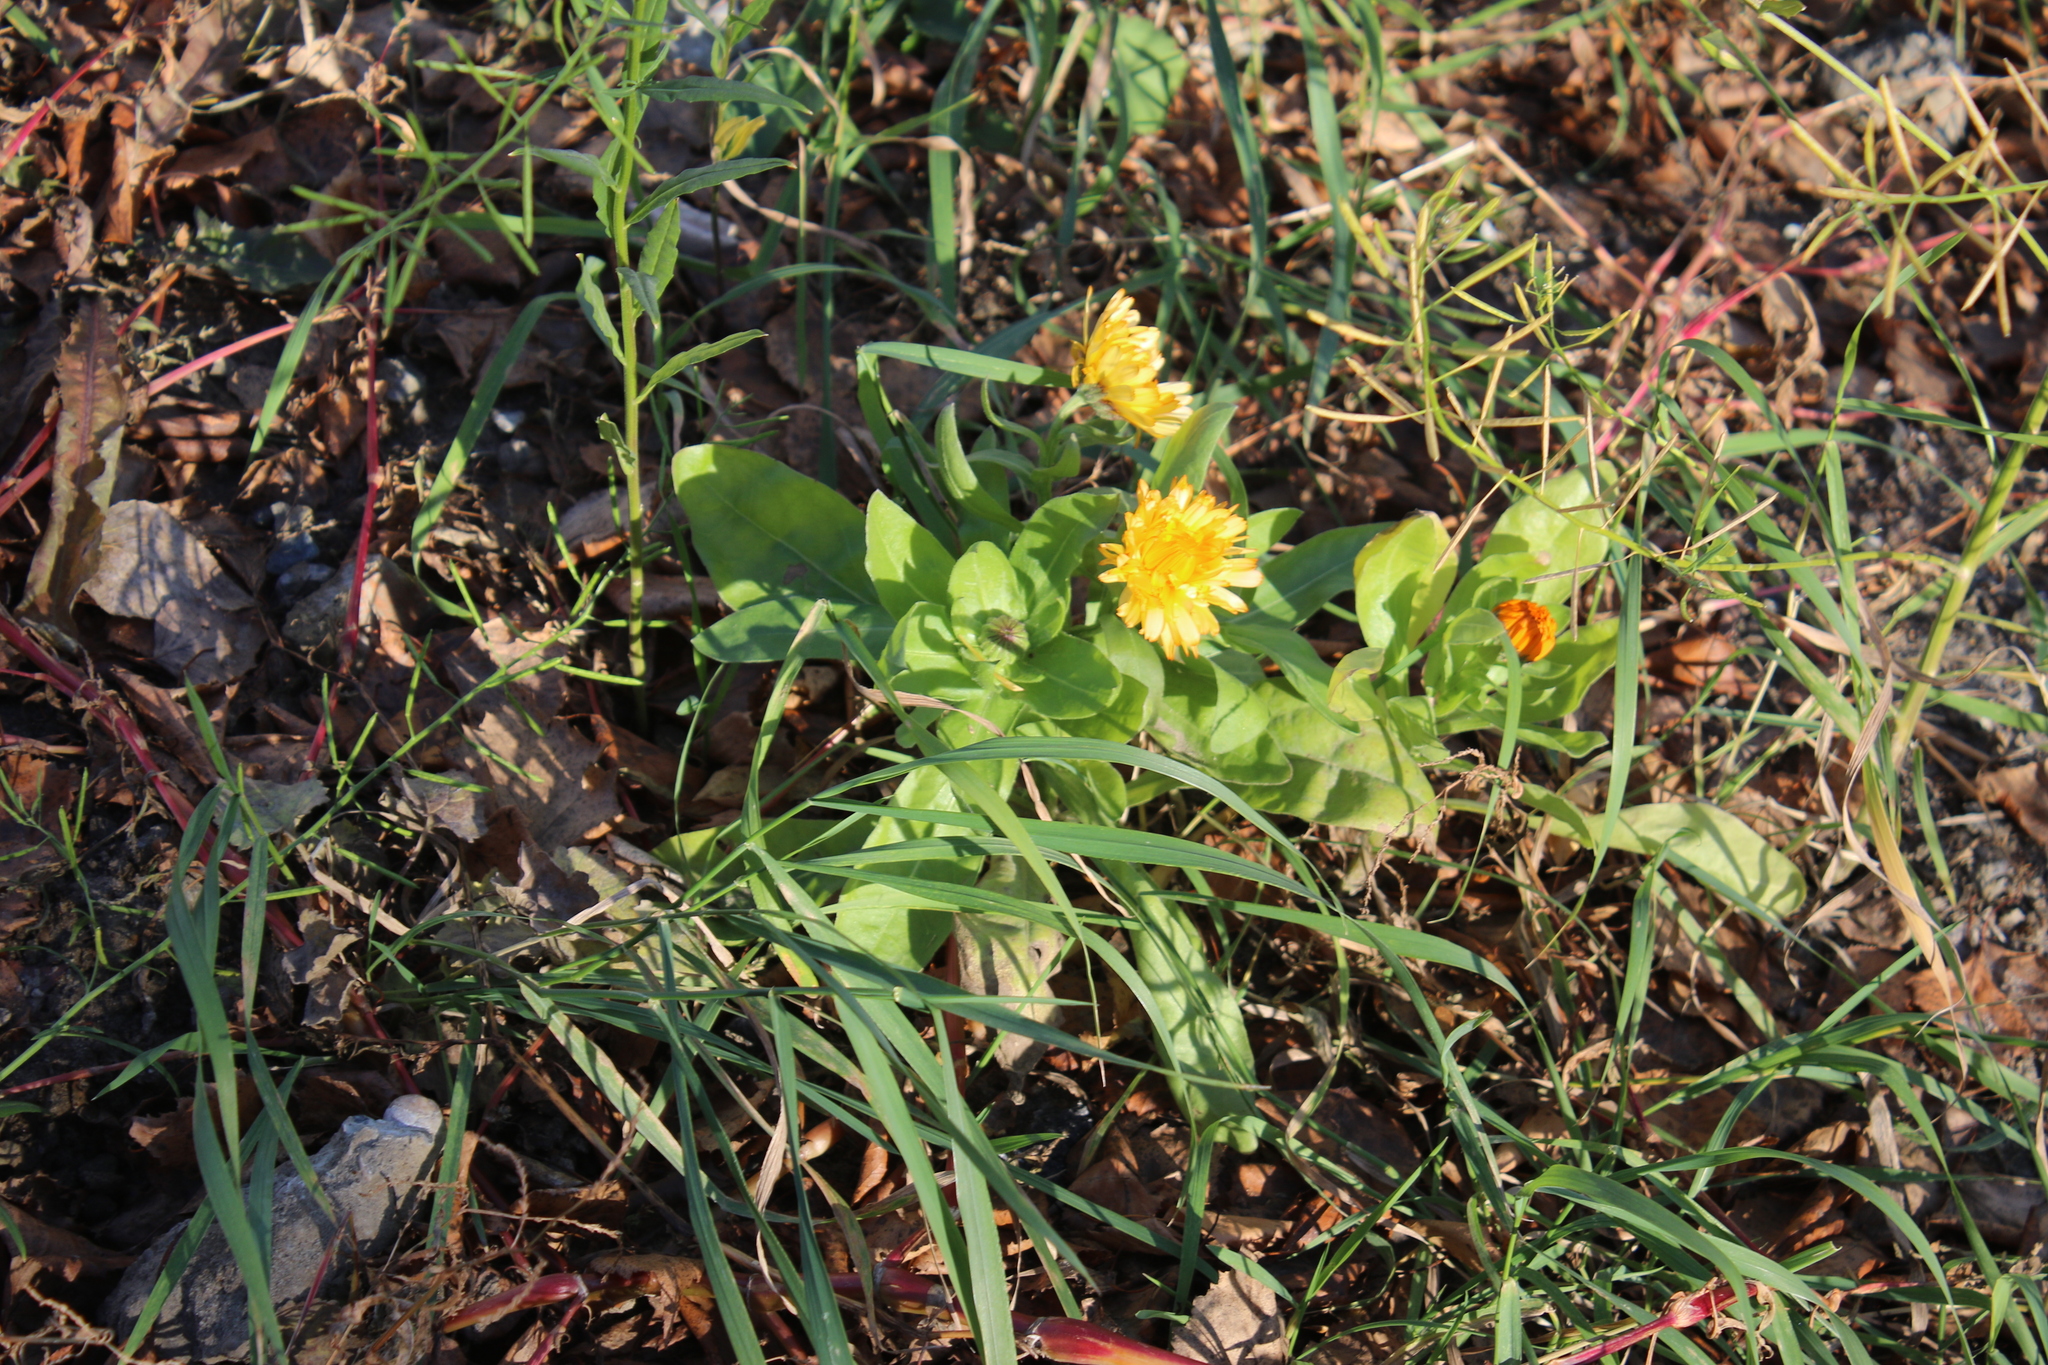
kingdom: Plantae
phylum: Tracheophyta
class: Magnoliopsida
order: Asterales
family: Asteraceae
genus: Calendula
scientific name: Calendula officinalis
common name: Pot marigold
